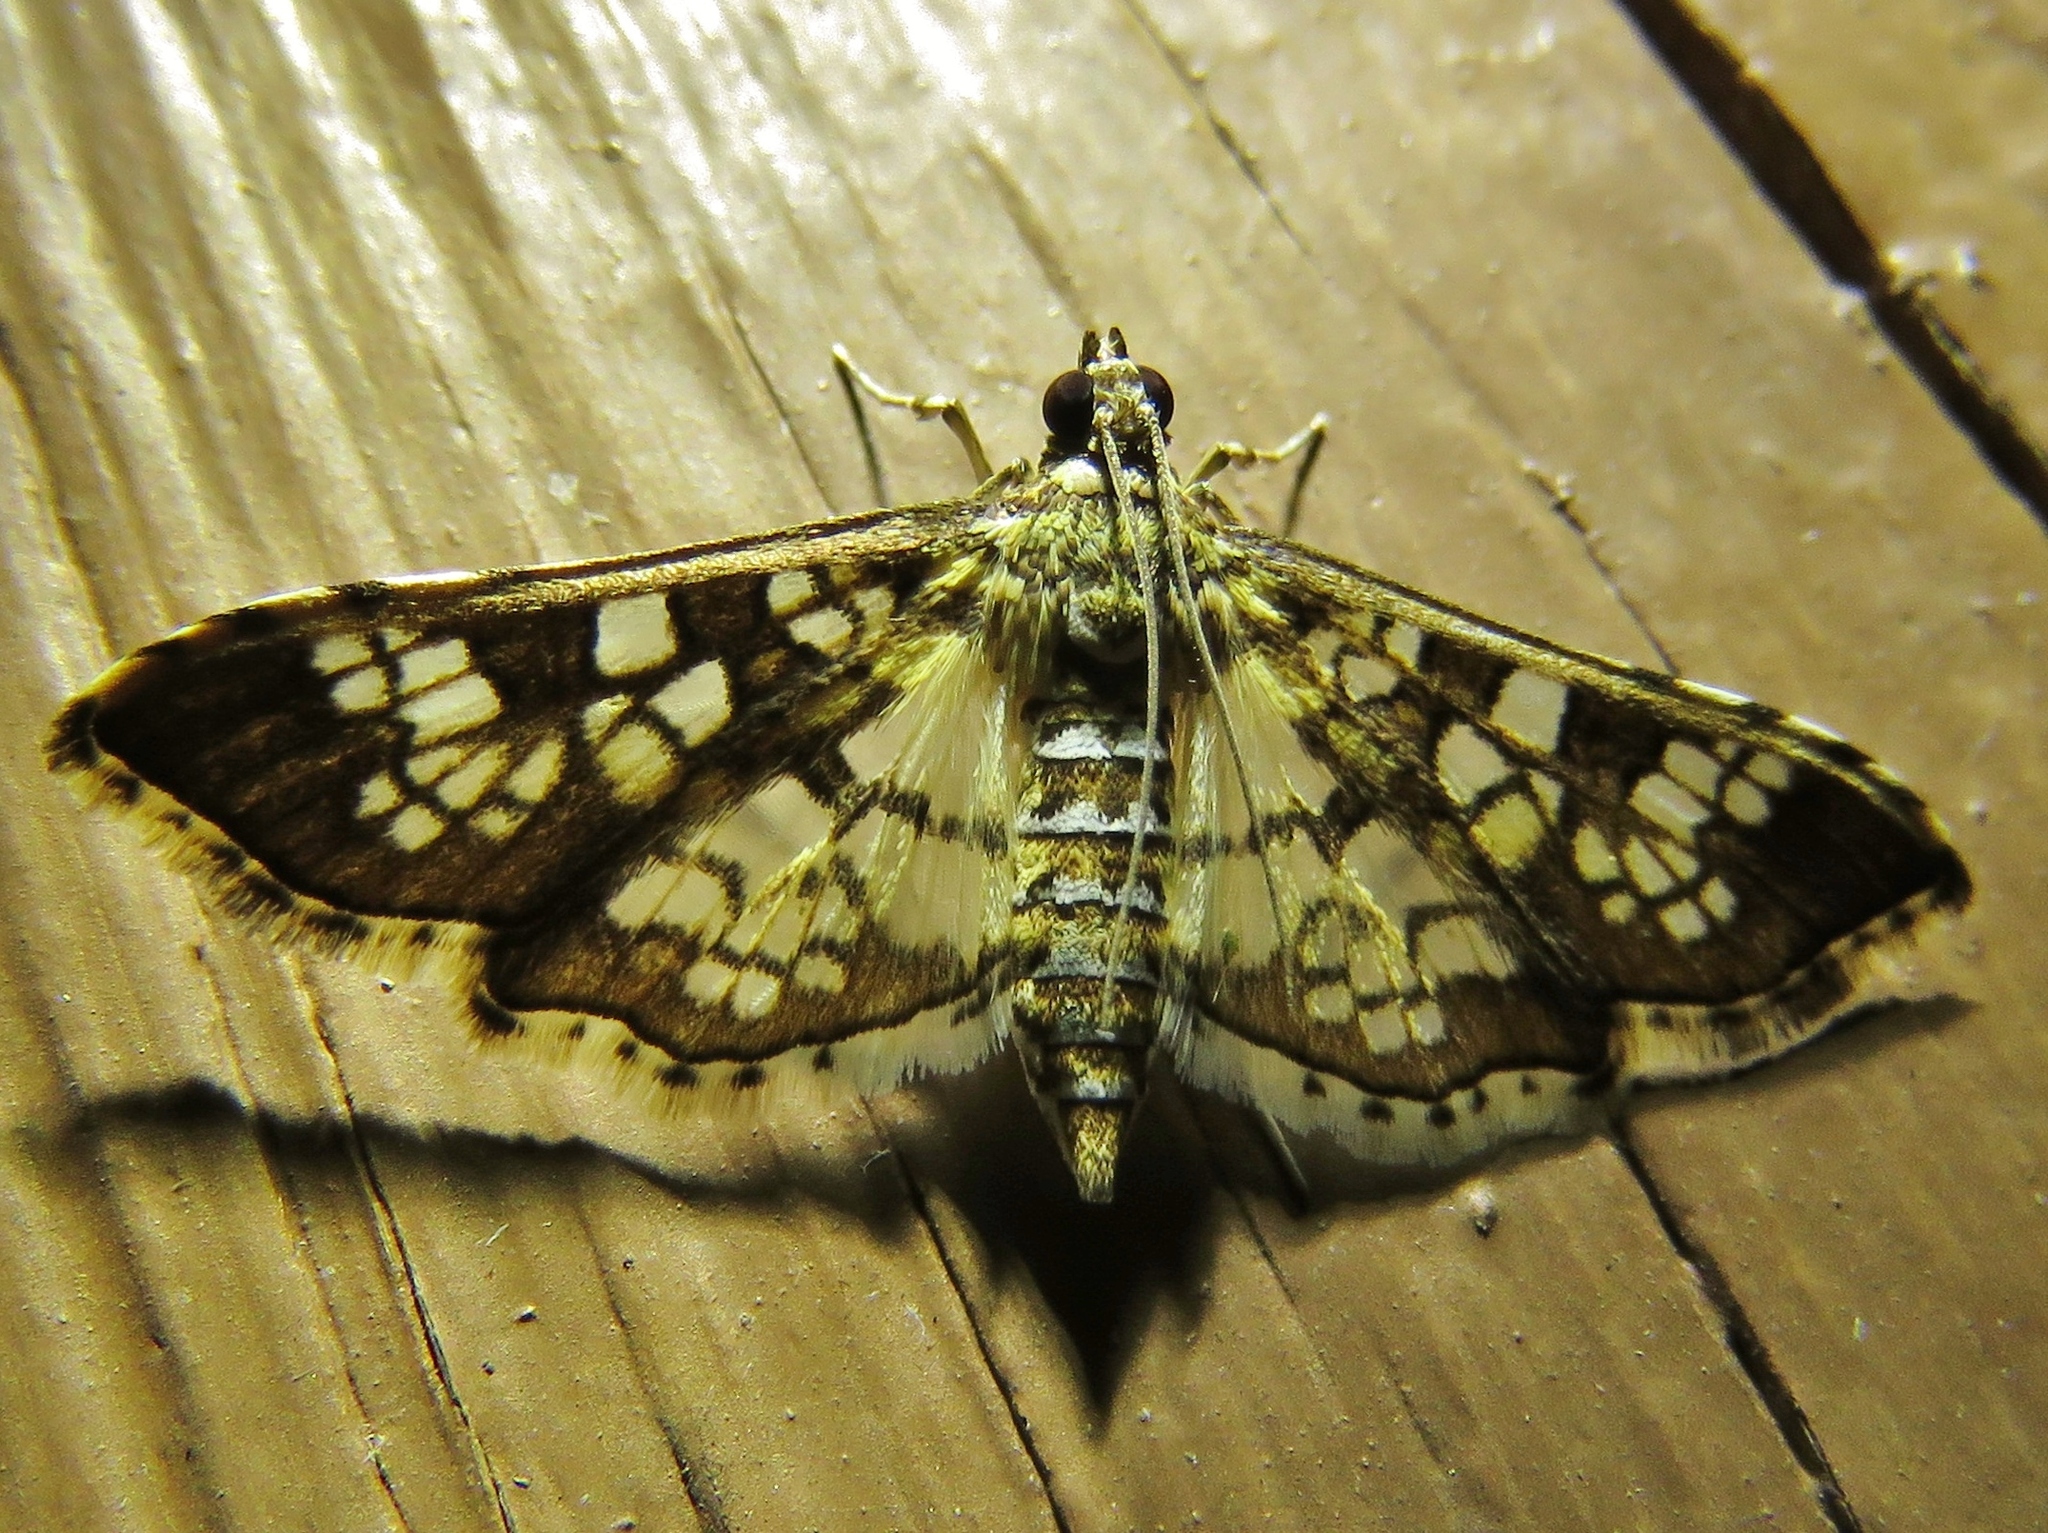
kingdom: Animalia
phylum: Arthropoda
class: Insecta
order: Lepidoptera
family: Crambidae
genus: Samea
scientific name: Samea ecclesialis
